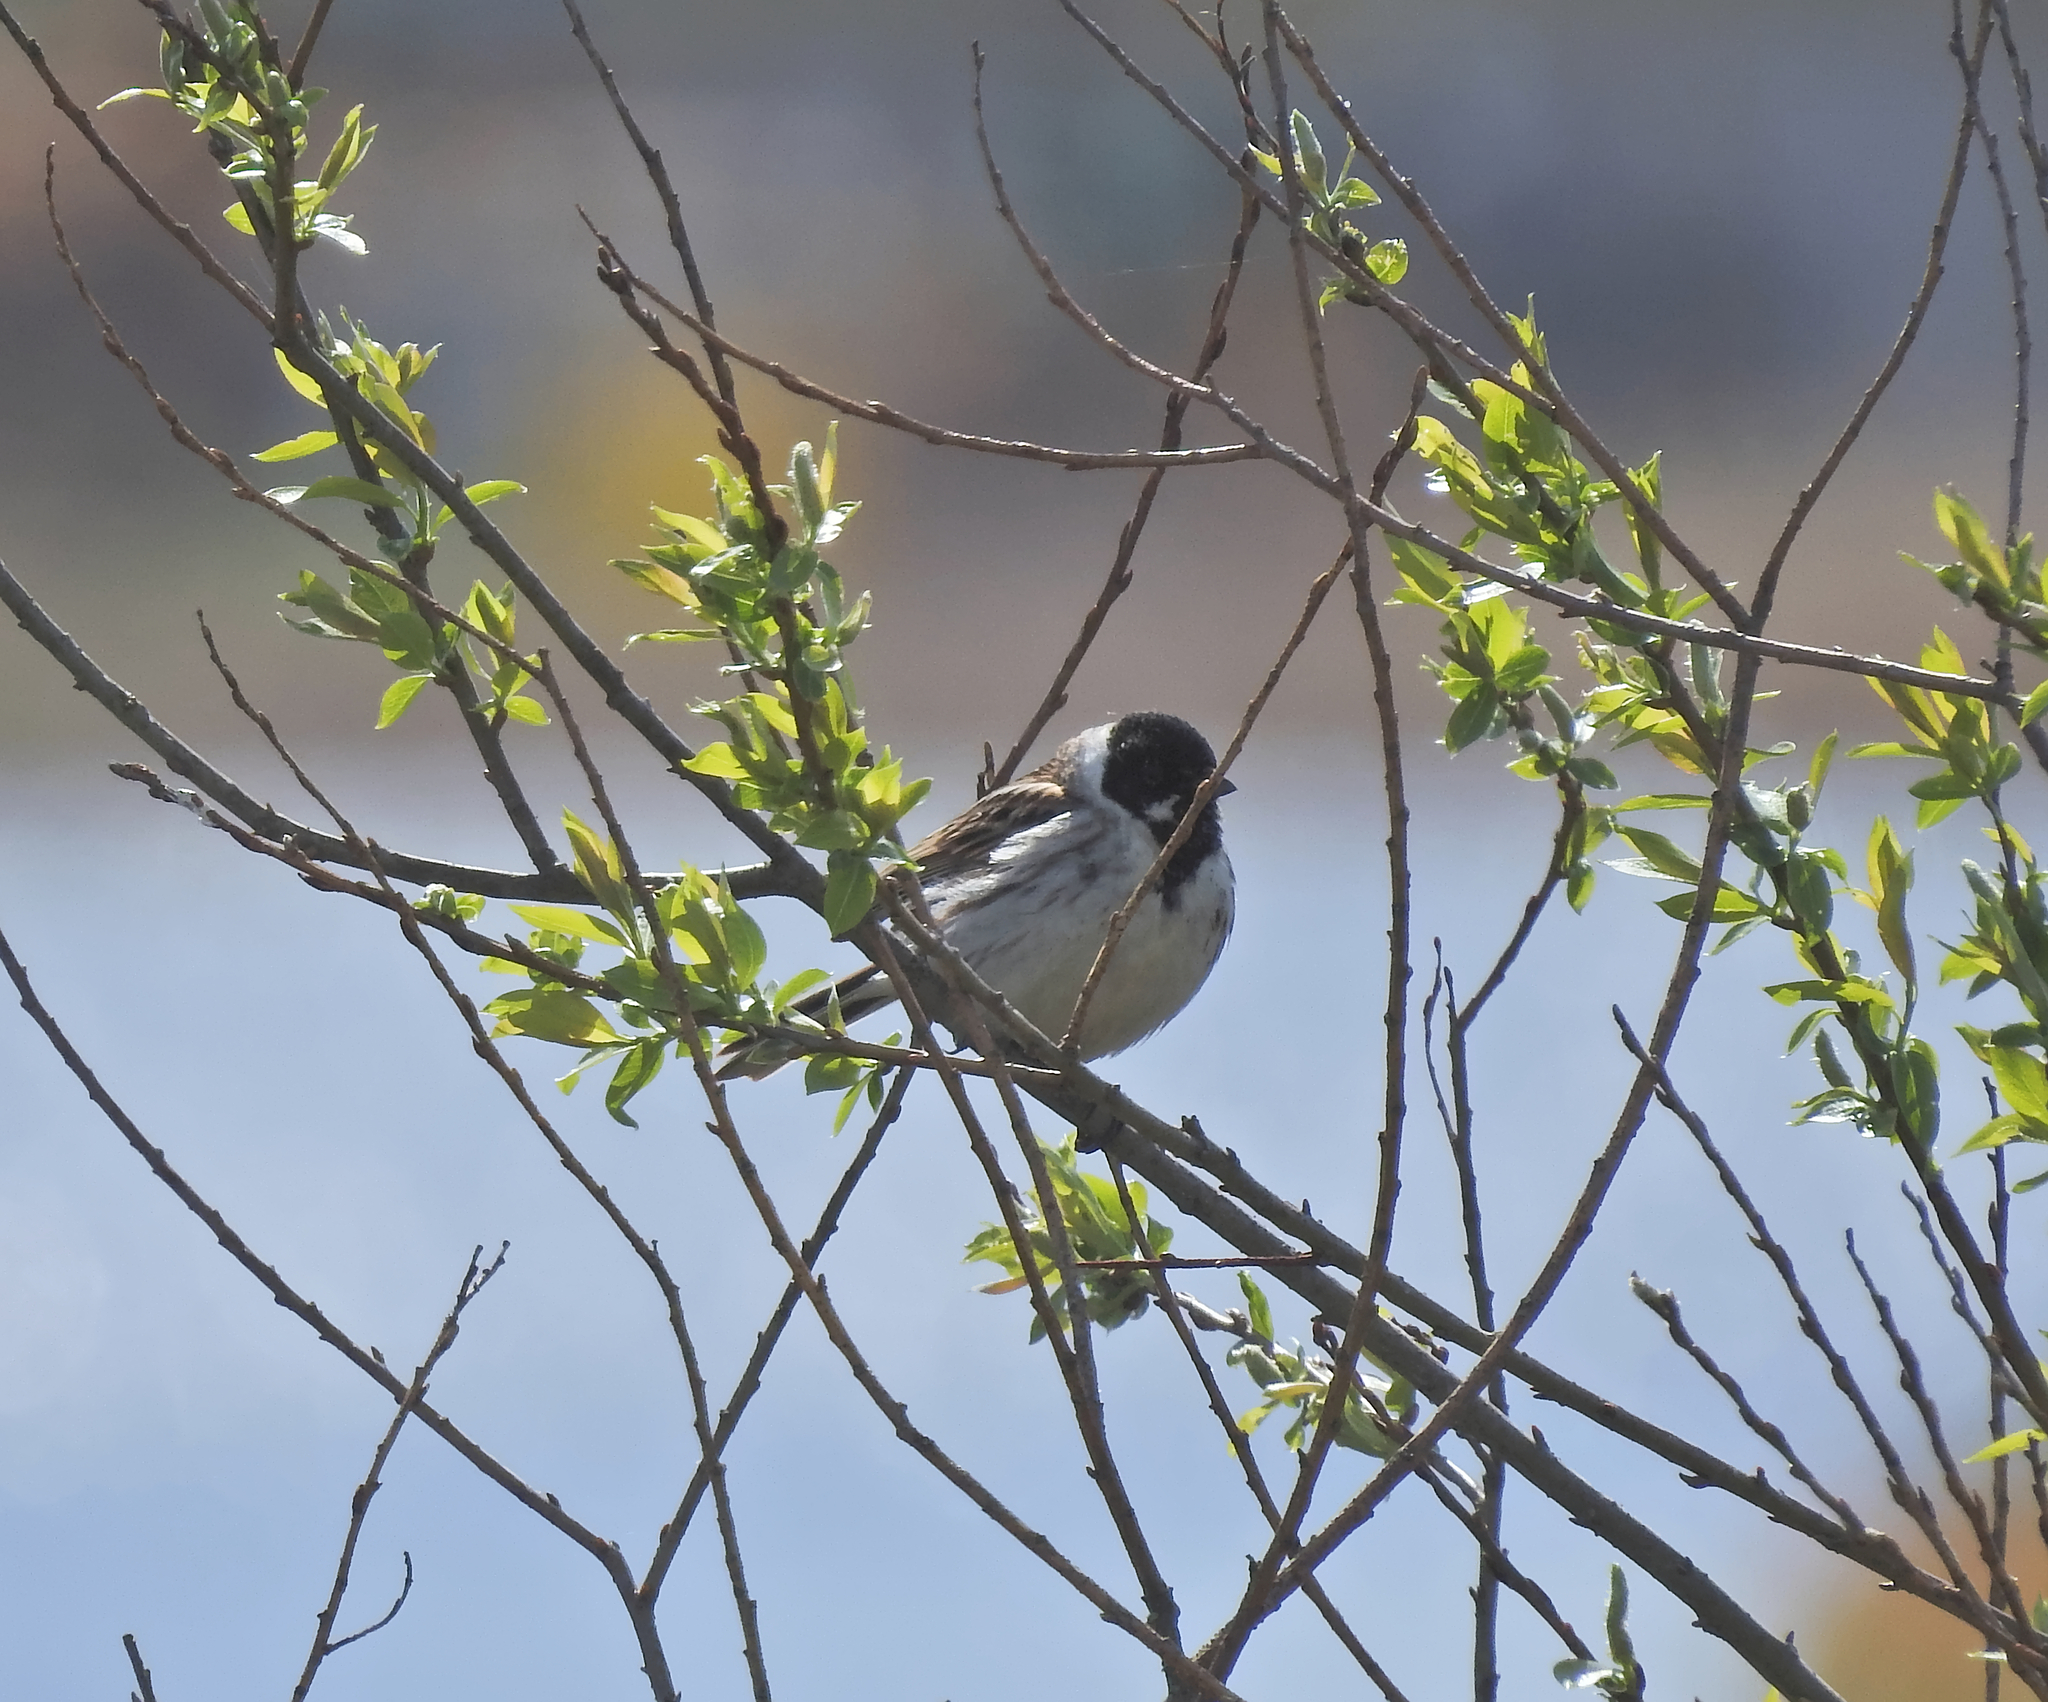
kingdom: Animalia
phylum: Chordata
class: Aves
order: Passeriformes
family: Emberizidae
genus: Emberiza
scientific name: Emberiza schoeniclus
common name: Reed bunting
